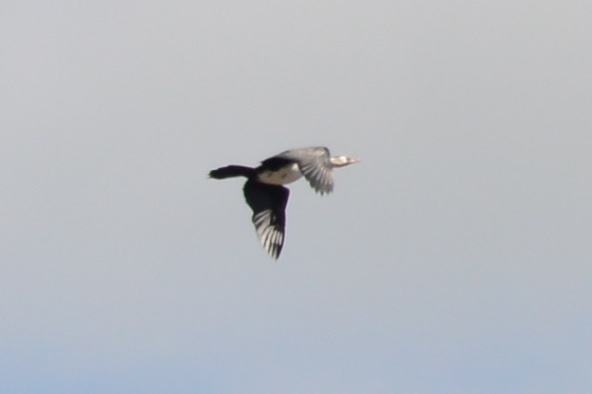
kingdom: Animalia
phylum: Chordata
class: Aves
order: Suliformes
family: Phalacrocoracidae
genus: Phalacrocorax
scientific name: Phalacrocorax varius
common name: Pied cormorant
